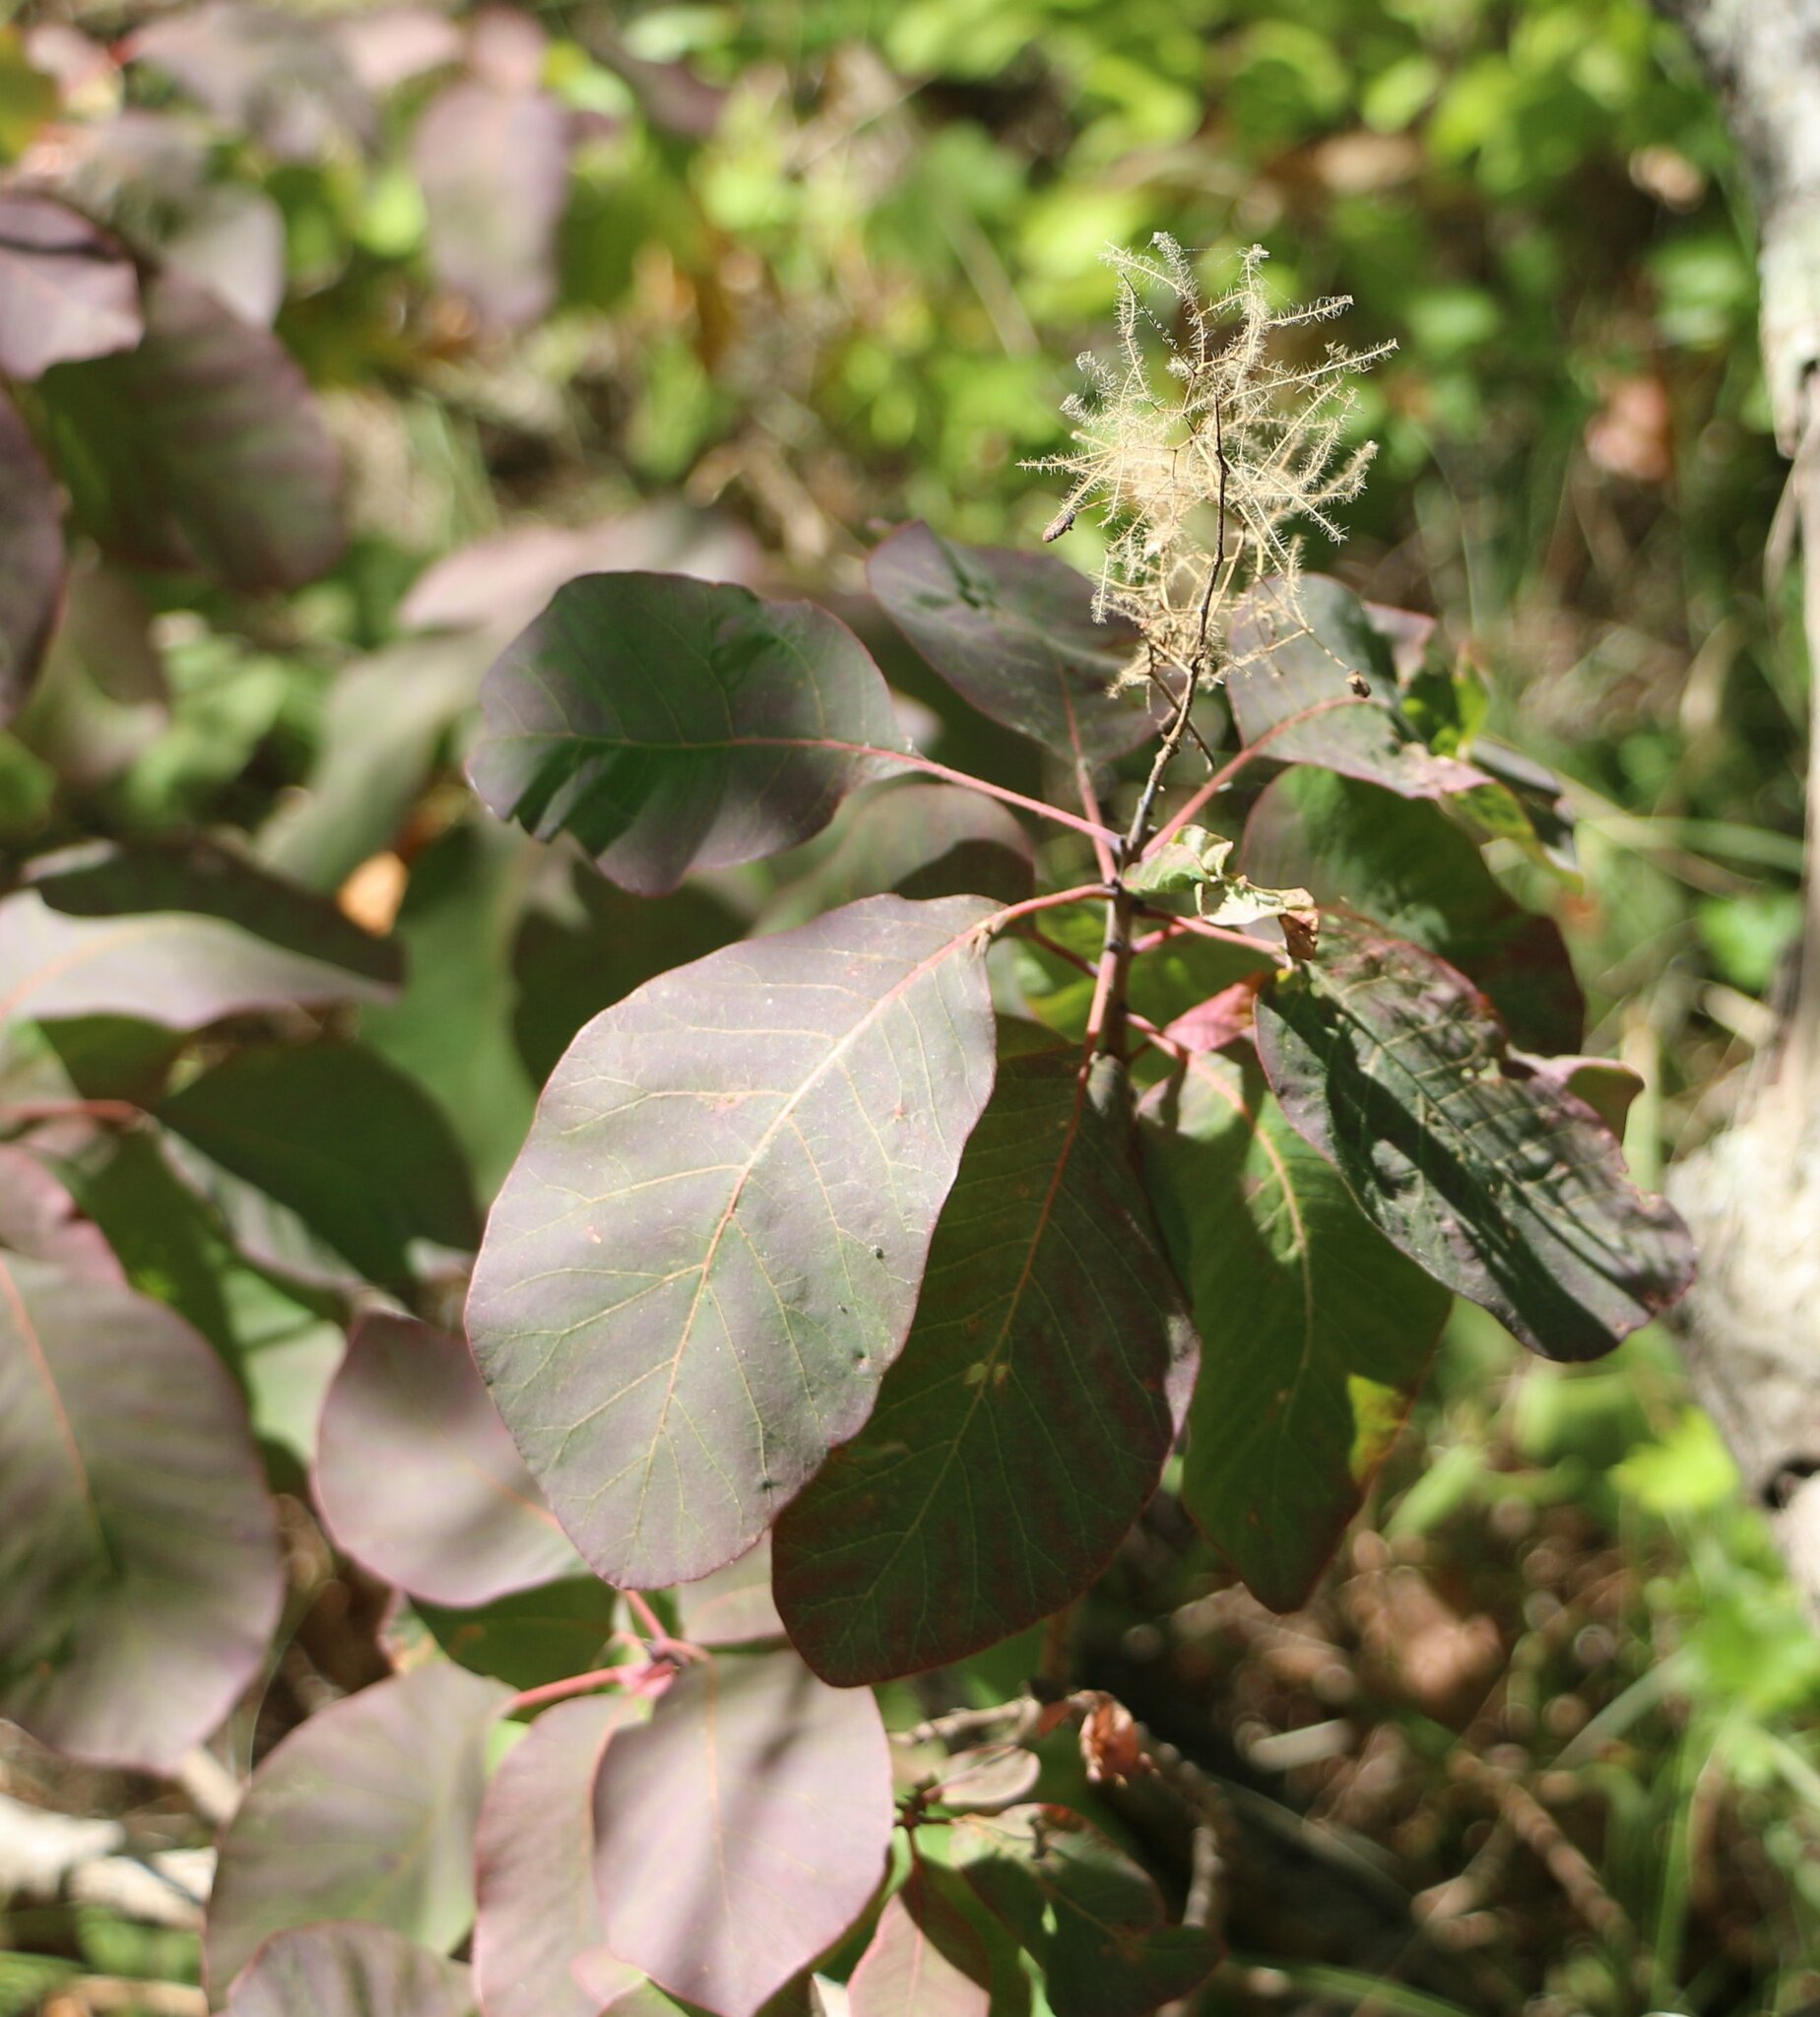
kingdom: Plantae
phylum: Tracheophyta
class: Magnoliopsida
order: Sapindales
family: Anacardiaceae
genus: Cotinus
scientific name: Cotinus coggygria
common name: Smoke-tree
